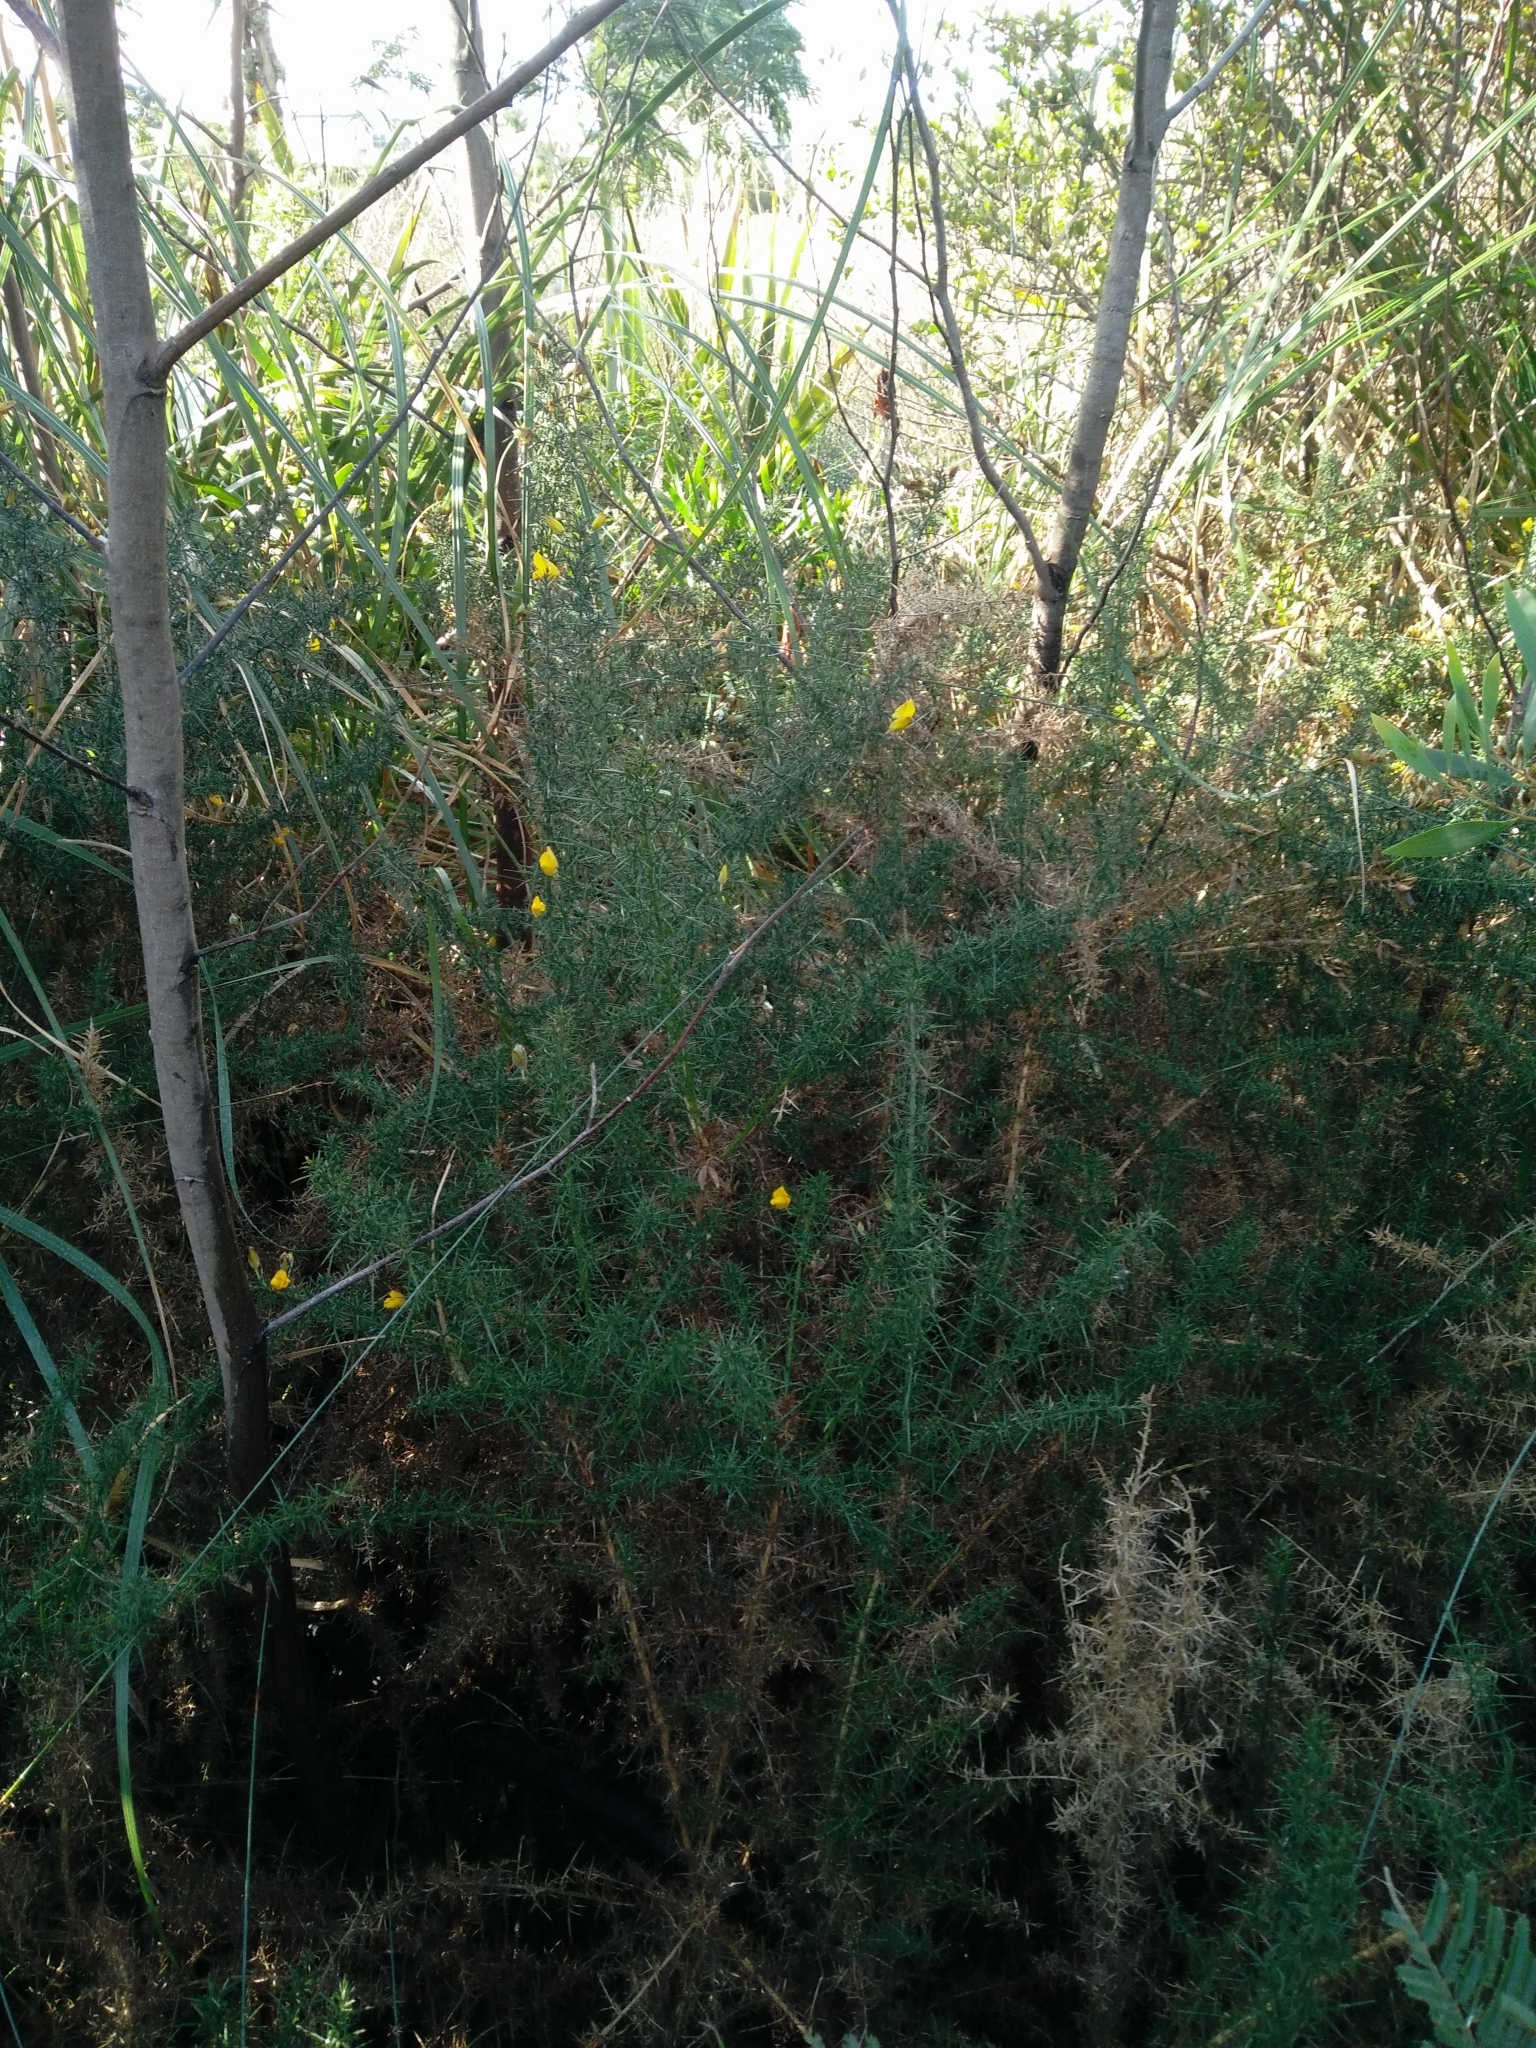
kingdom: Plantae
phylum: Tracheophyta
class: Magnoliopsida
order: Fabales
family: Fabaceae
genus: Ulex
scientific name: Ulex europaeus
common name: Common gorse
